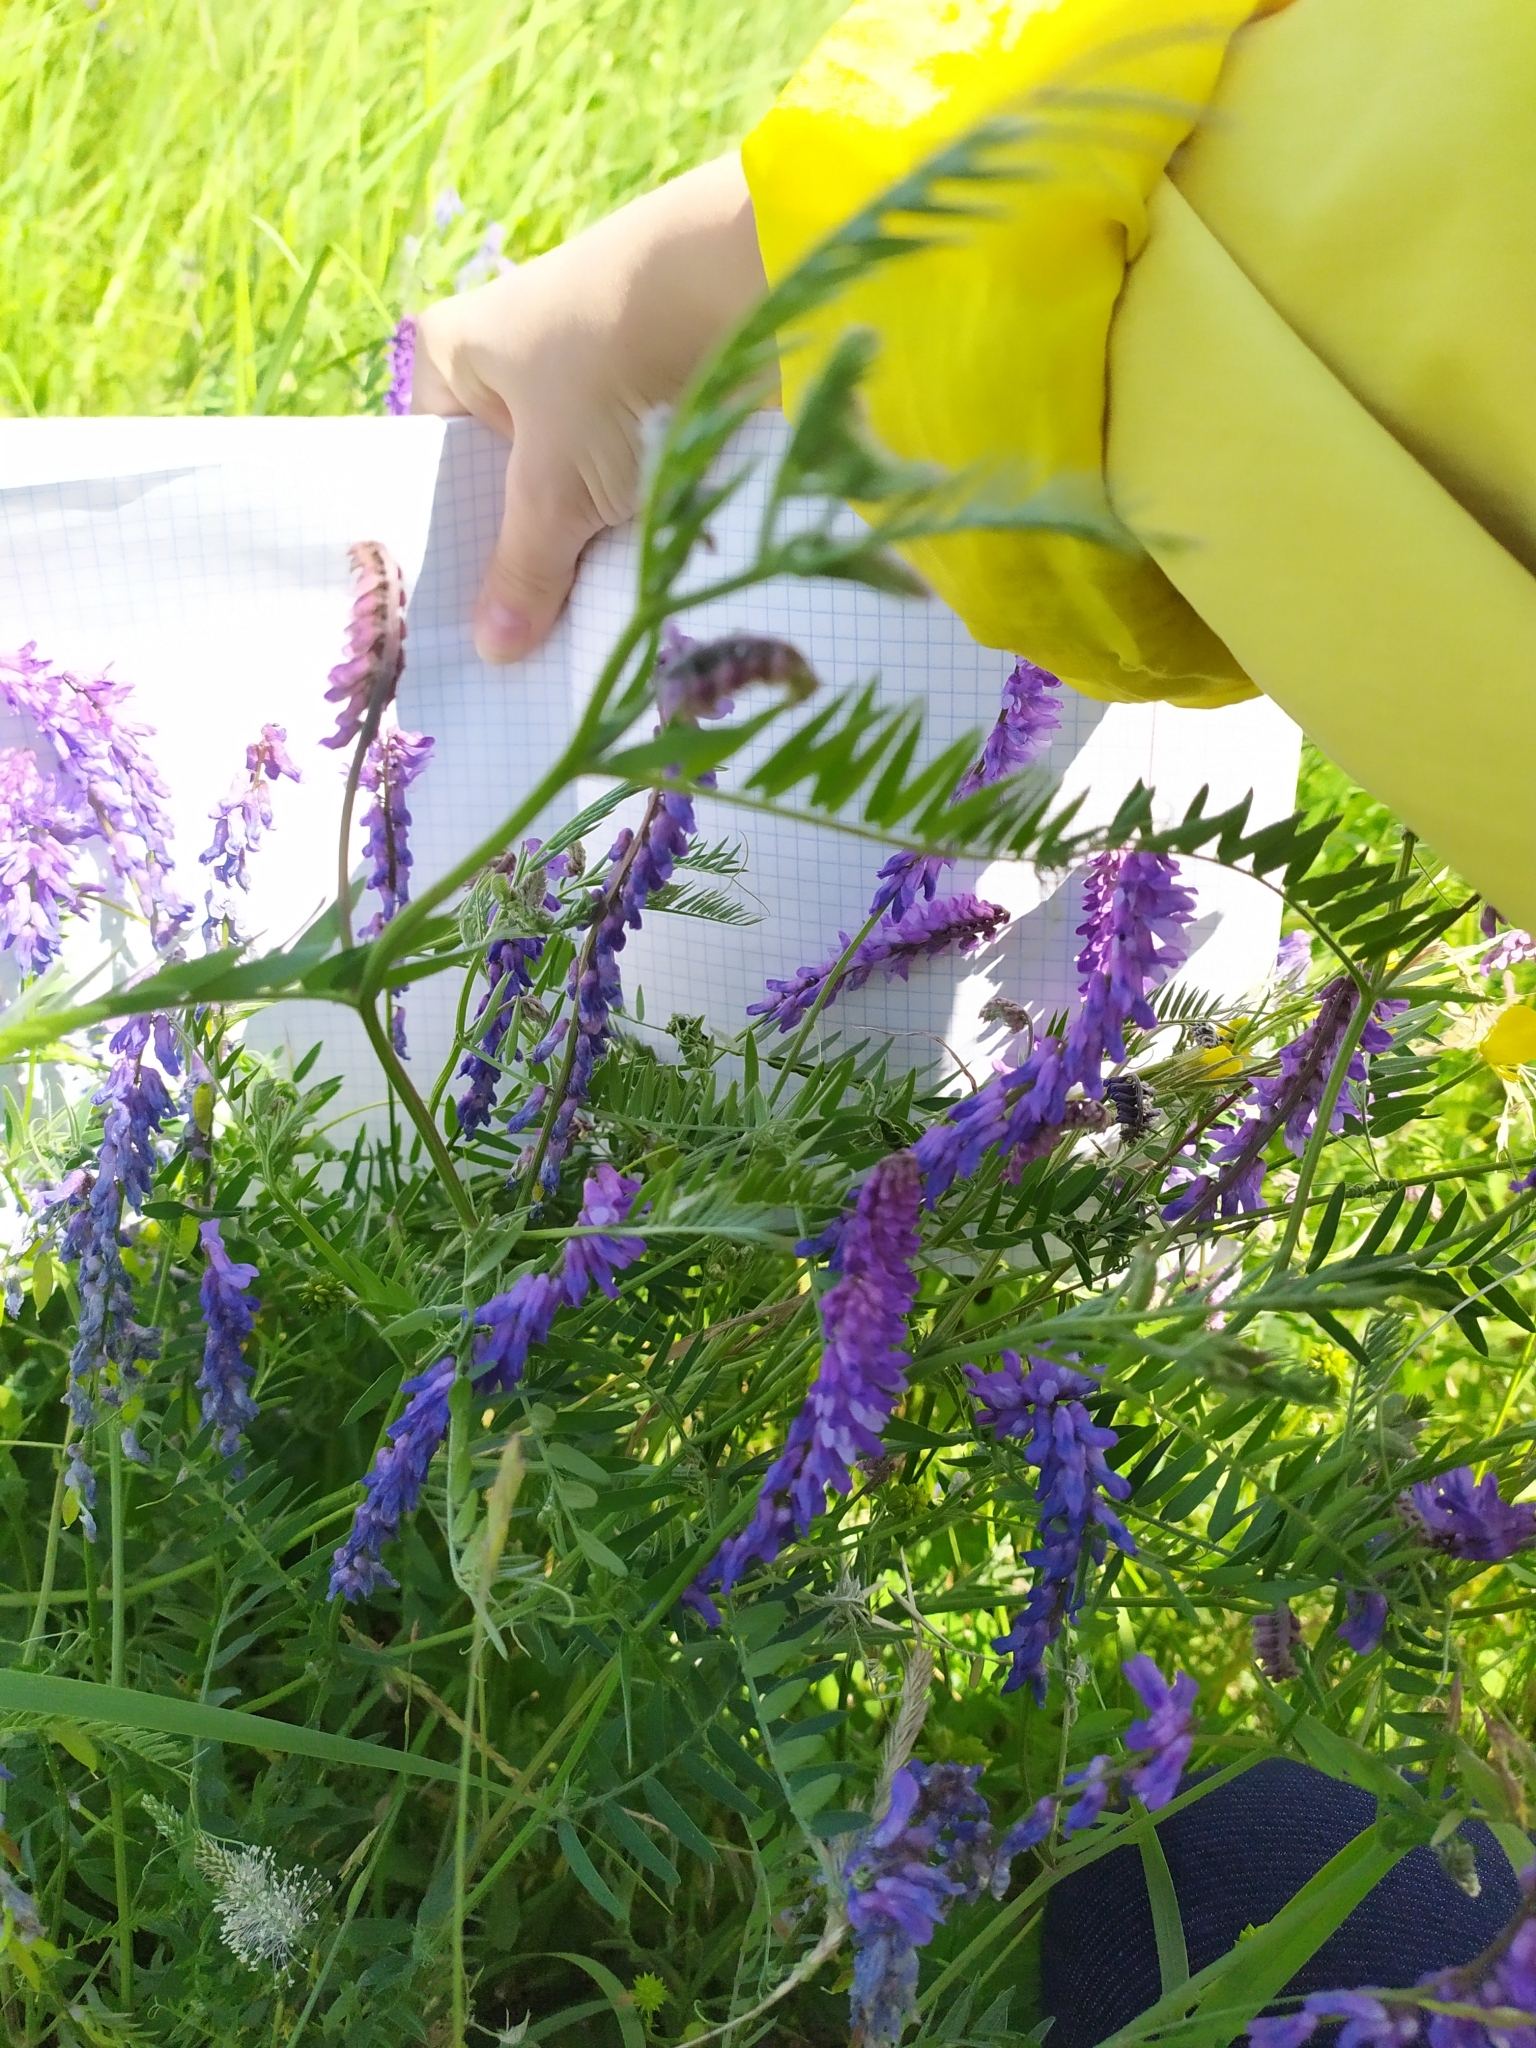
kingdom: Plantae
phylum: Tracheophyta
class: Magnoliopsida
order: Fabales
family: Fabaceae
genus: Vicia
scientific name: Vicia cracca
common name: Bird vetch
